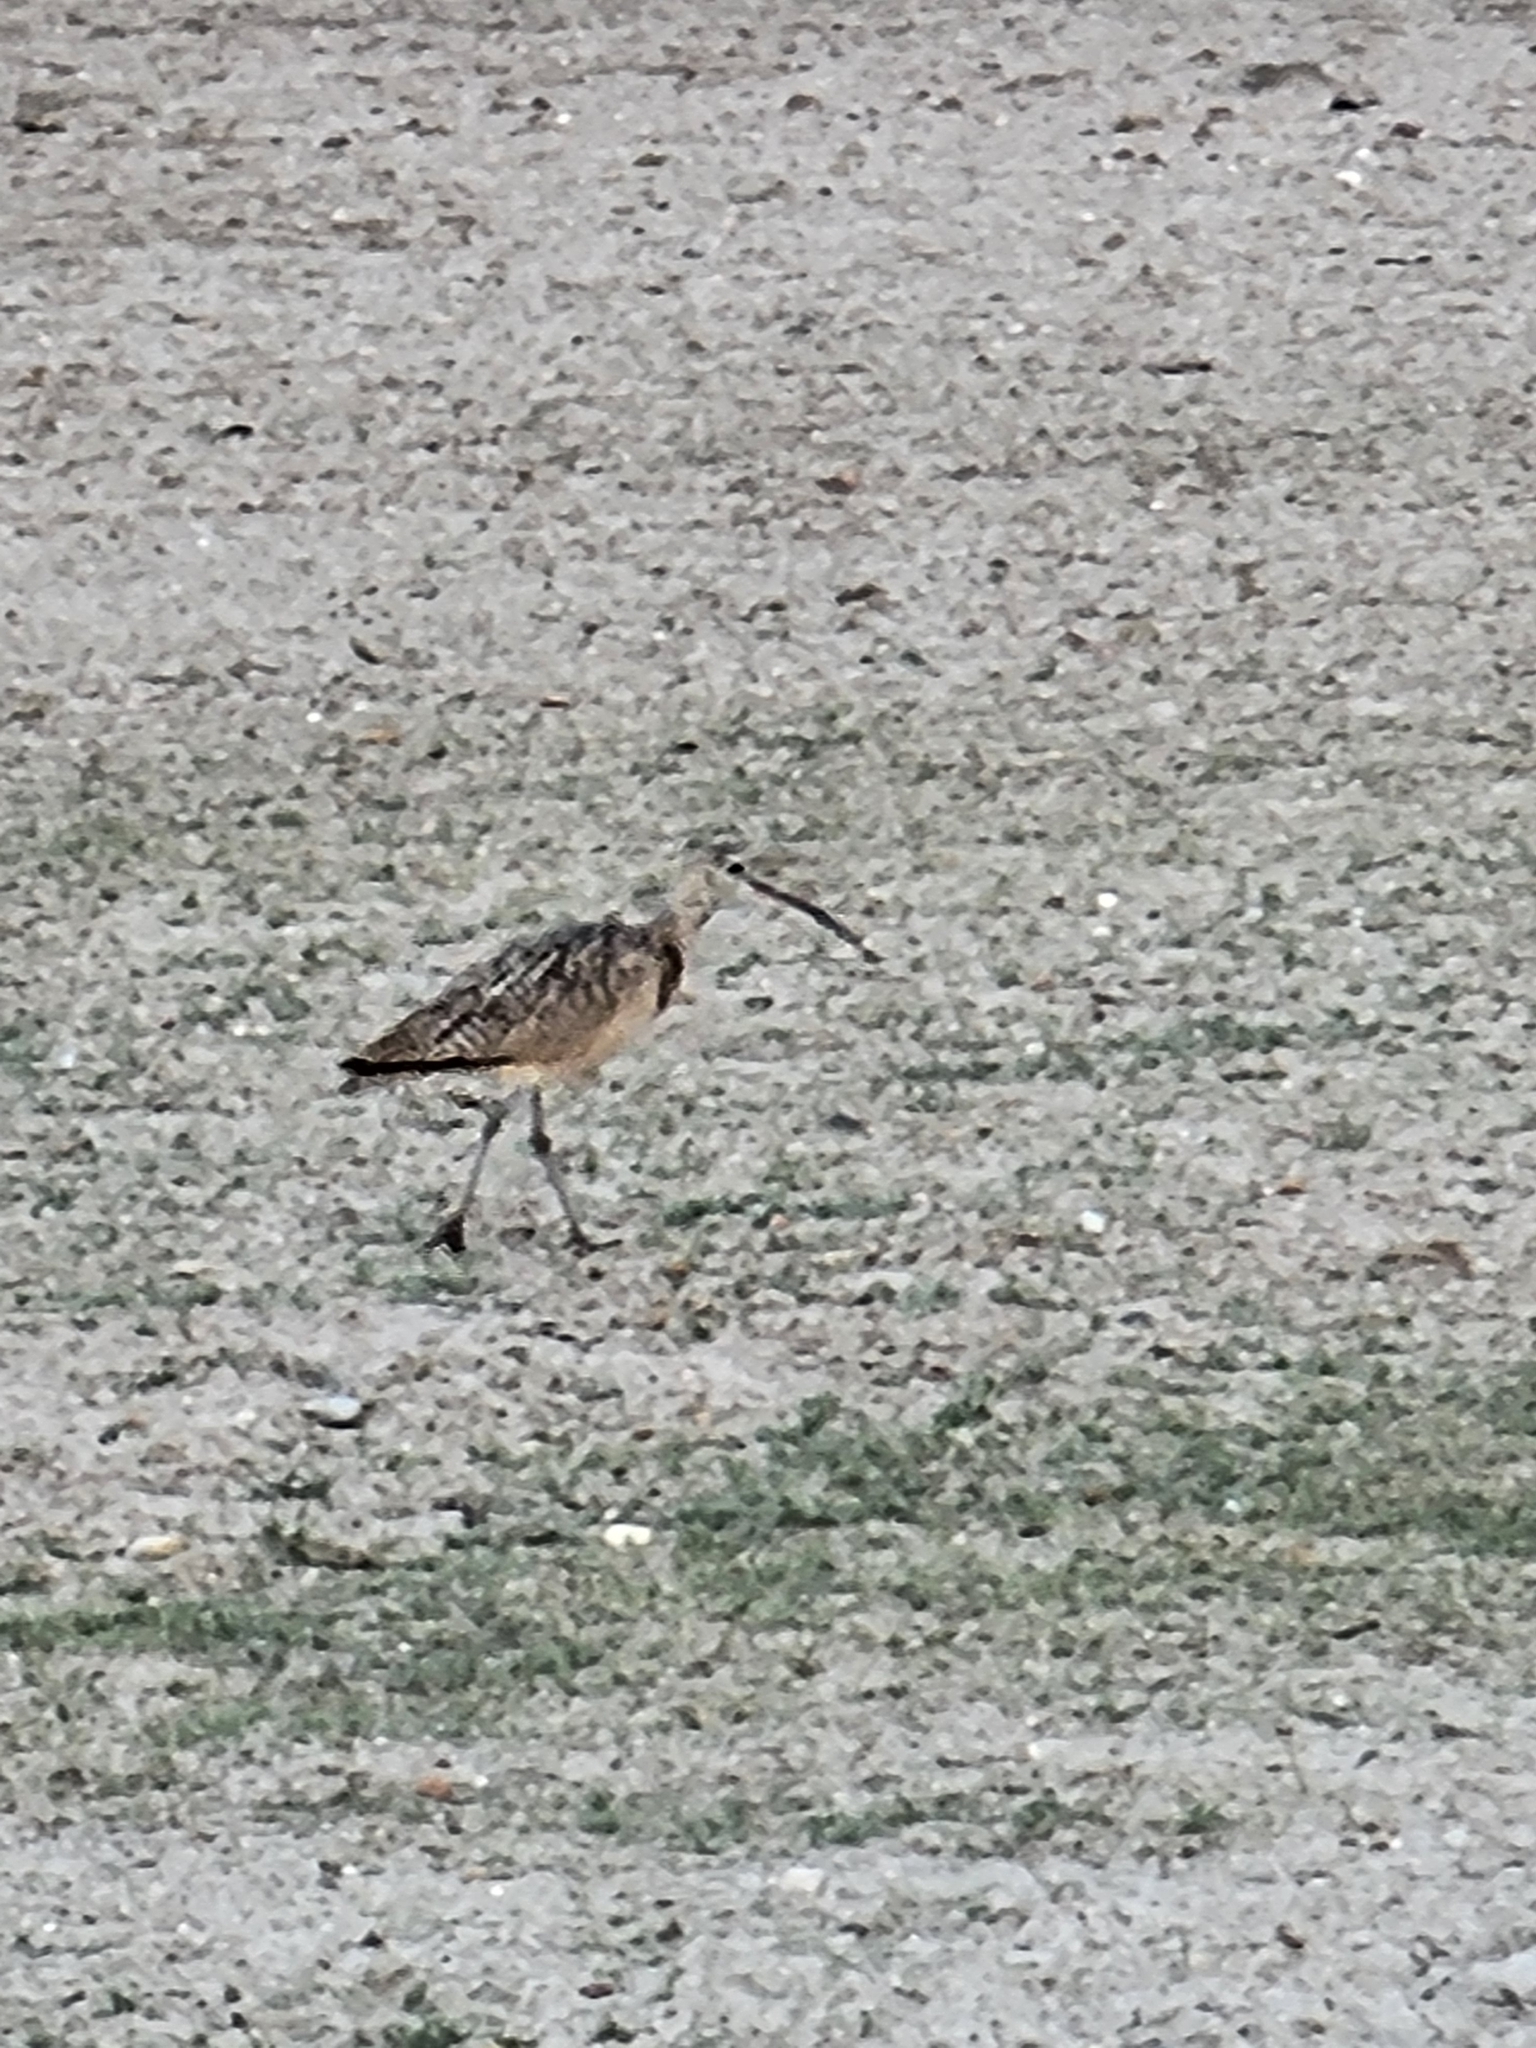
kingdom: Animalia
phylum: Chordata
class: Aves
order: Charadriiformes
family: Scolopacidae
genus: Numenius
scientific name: Numenius americanus
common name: Long-billed curlew
